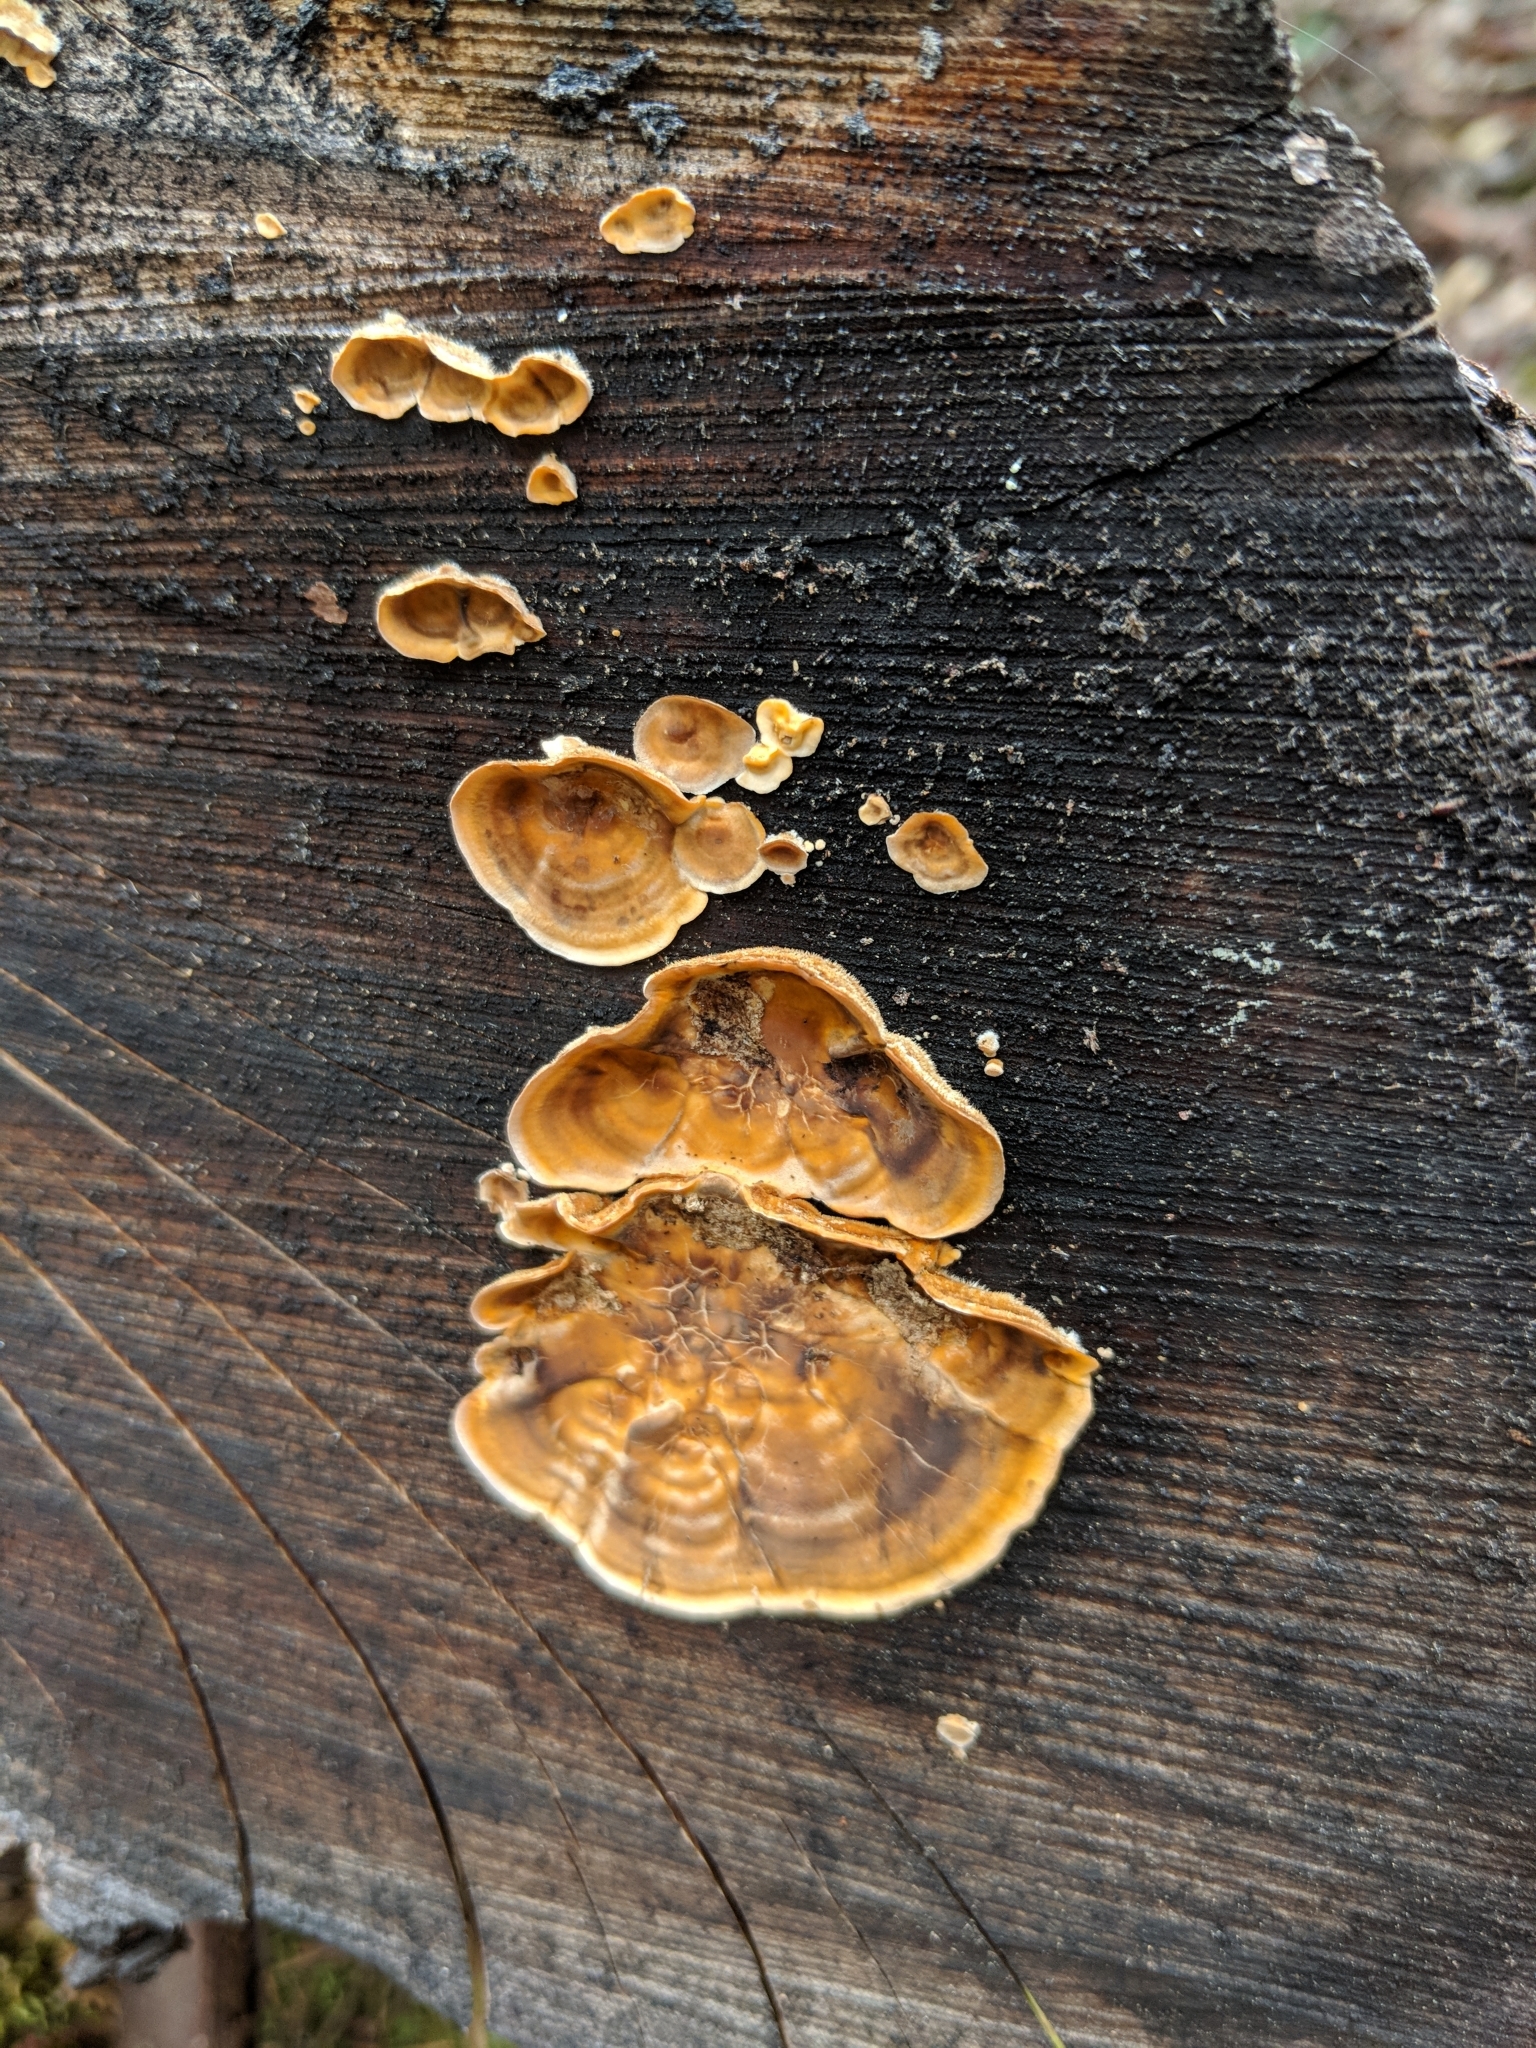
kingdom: Fungi
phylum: Basidiomycota
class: Agaricomycetes
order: Russulales
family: Stereaceae
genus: Stereum
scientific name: Stereum hirsutum
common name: Hairy curtain crust
